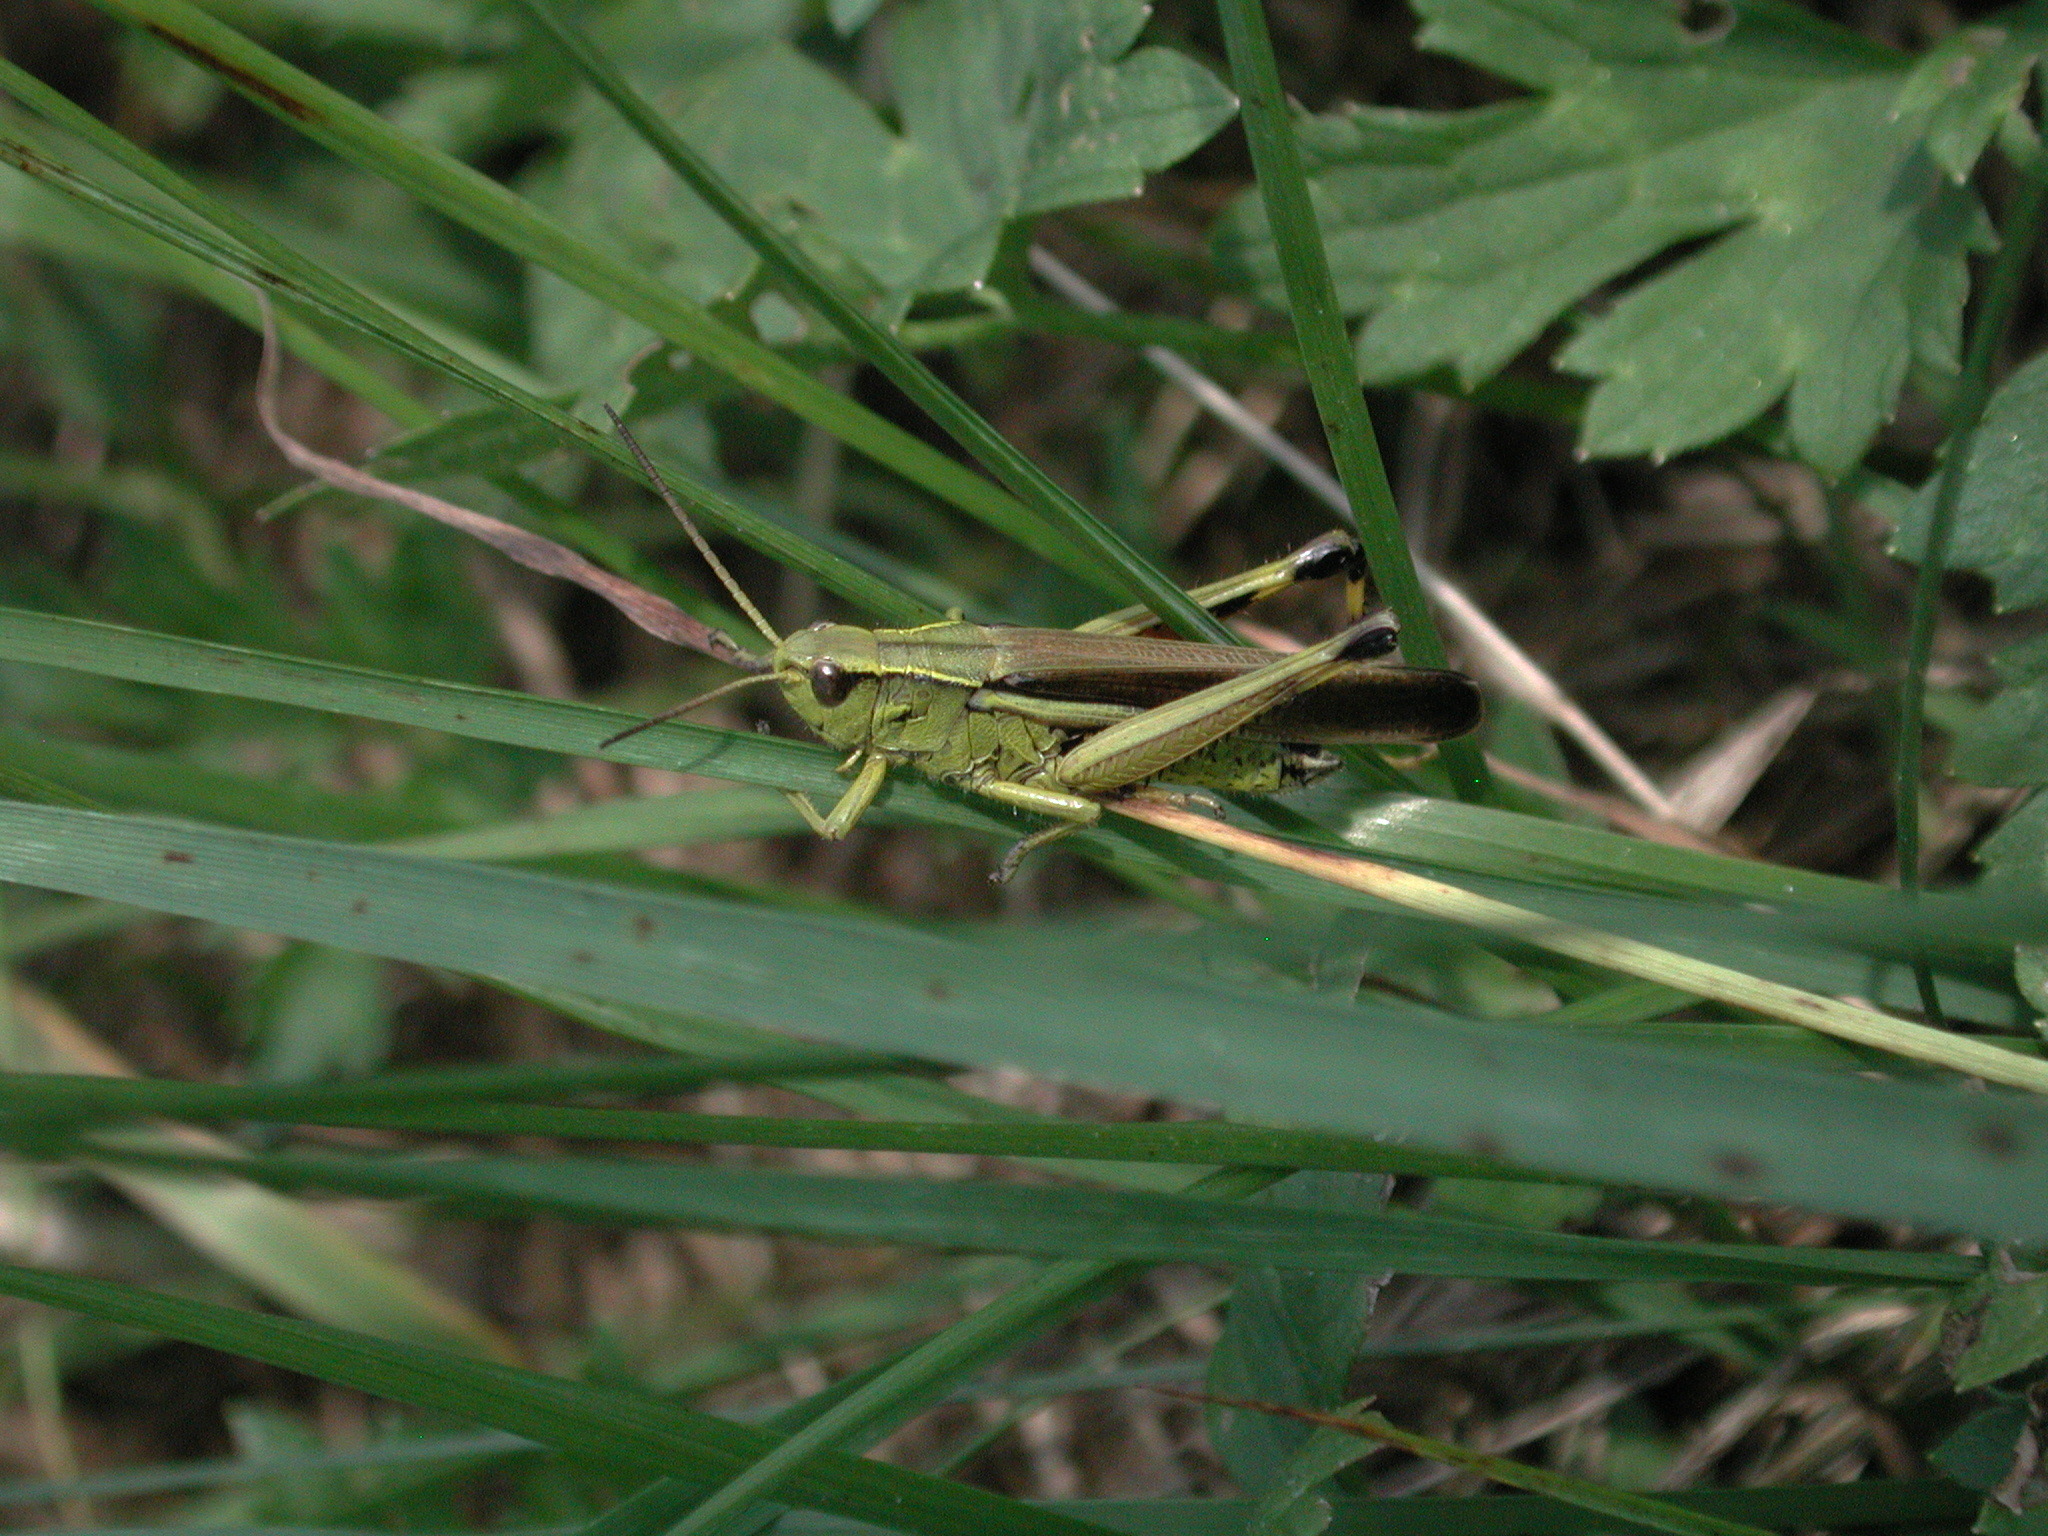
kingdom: Animalia
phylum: Arthropoda
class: Insecta
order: Orthoptera
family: Acrididae
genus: Stethophyma
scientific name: Stethophyma grossum
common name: Large marsh grasshopper
